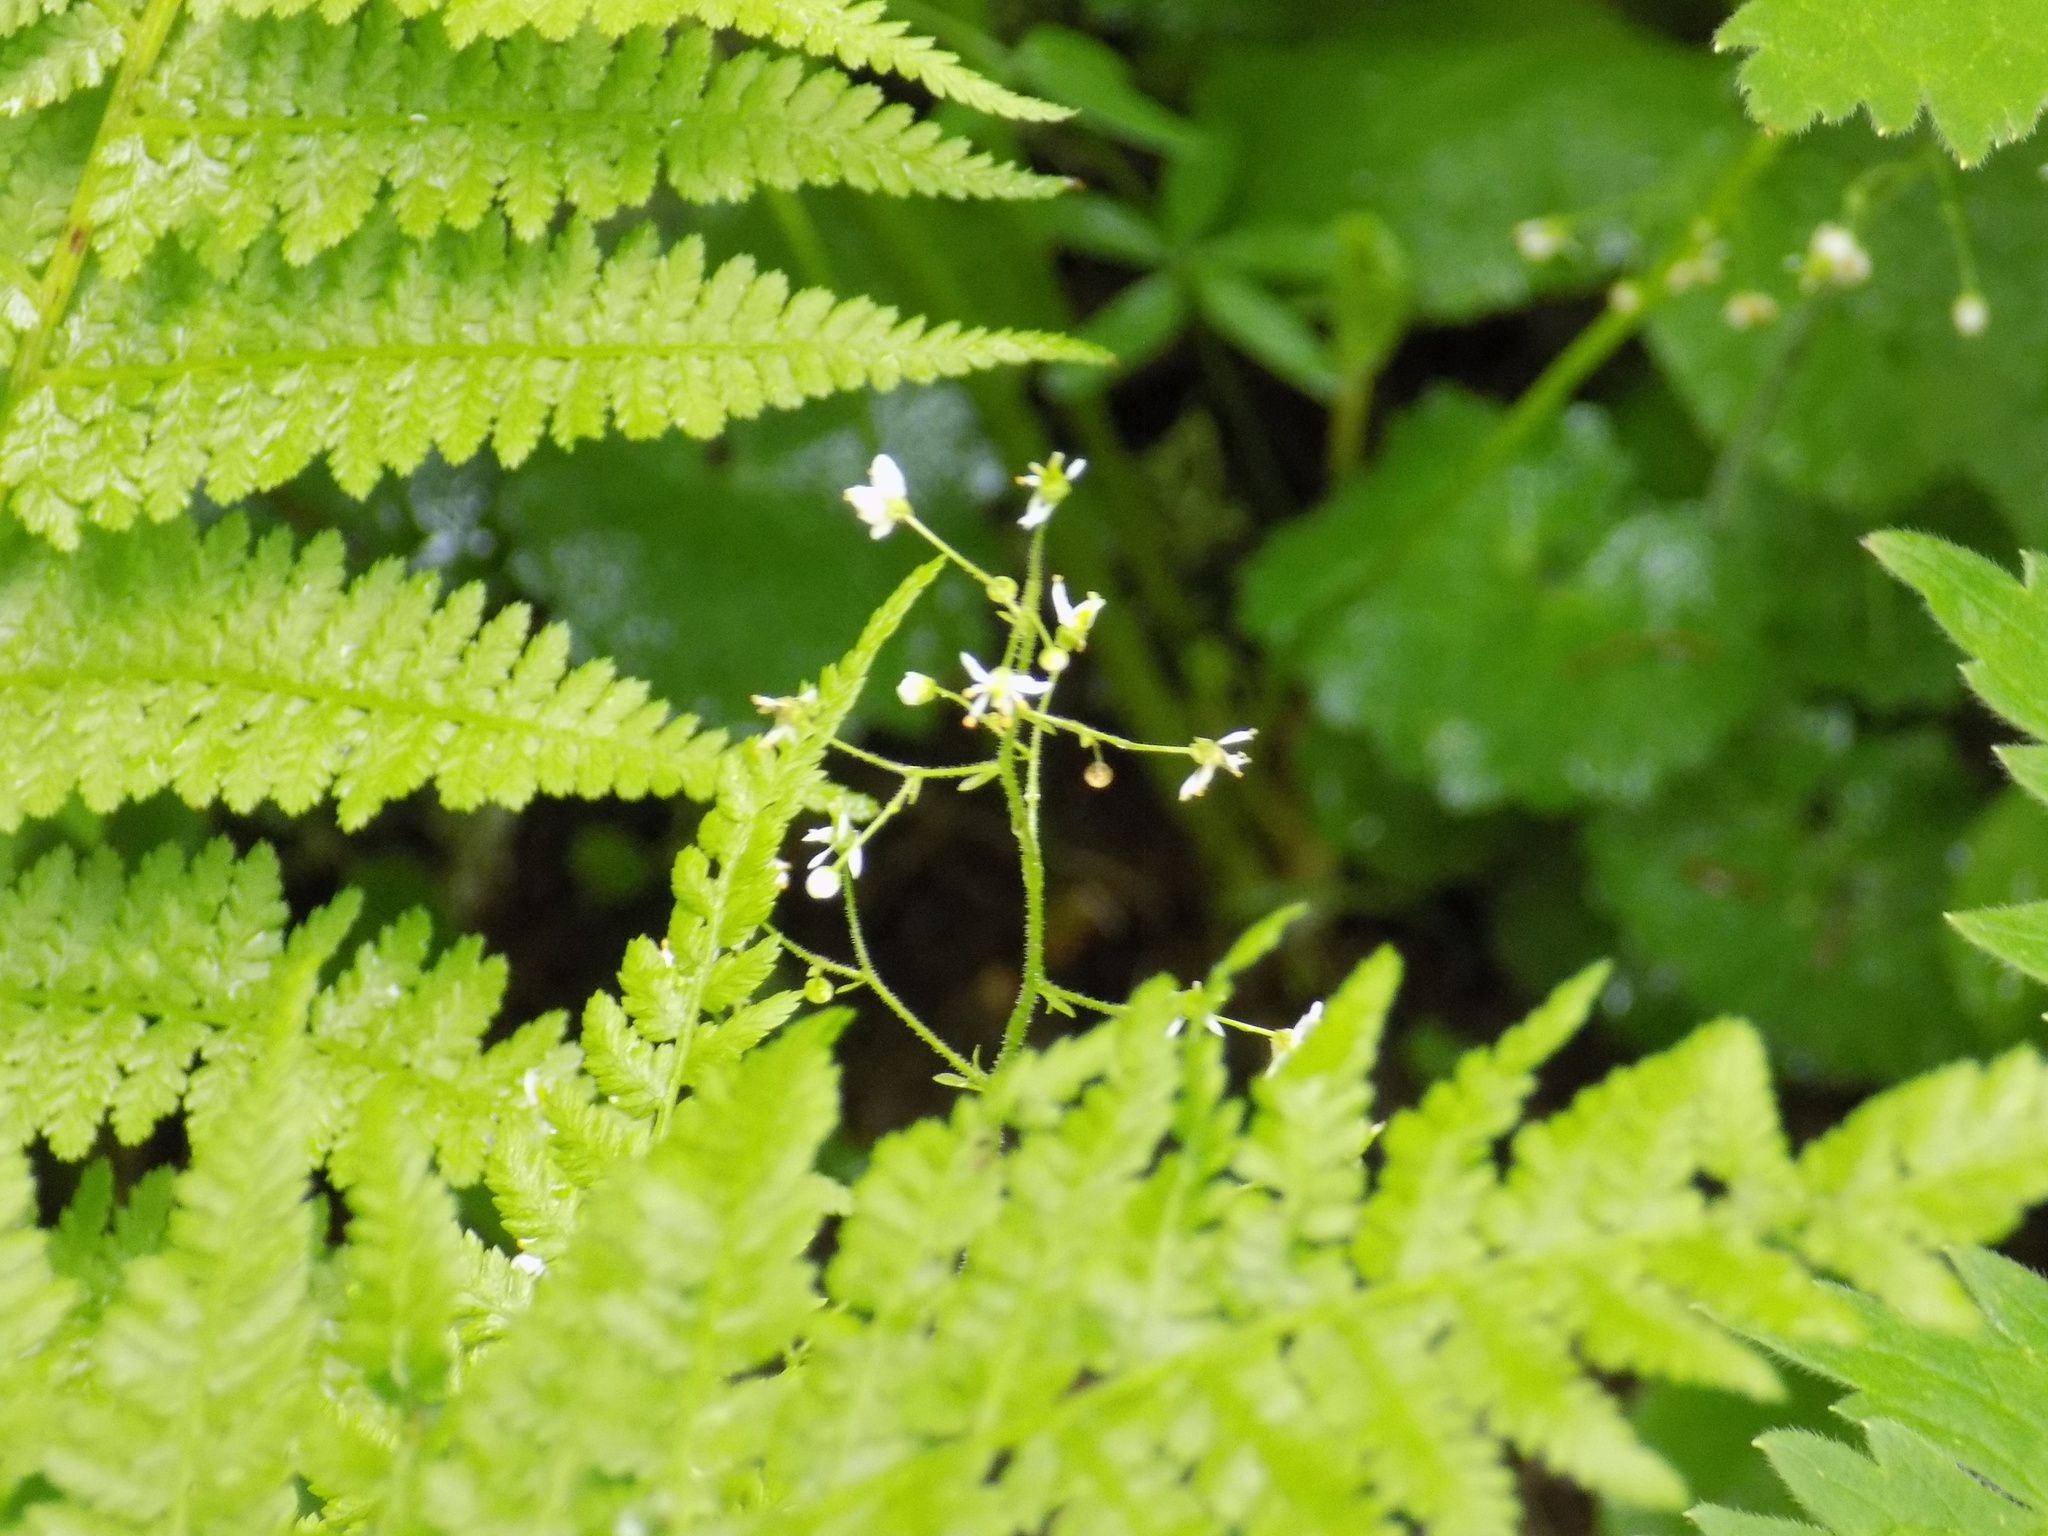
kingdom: Plantae
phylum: Tracheophyta
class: Magnoliopsida
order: Saxifragales
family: Saxifragaceae
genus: Micranthes
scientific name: Micranthes nelsoniana
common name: Nelson's saxifrage
